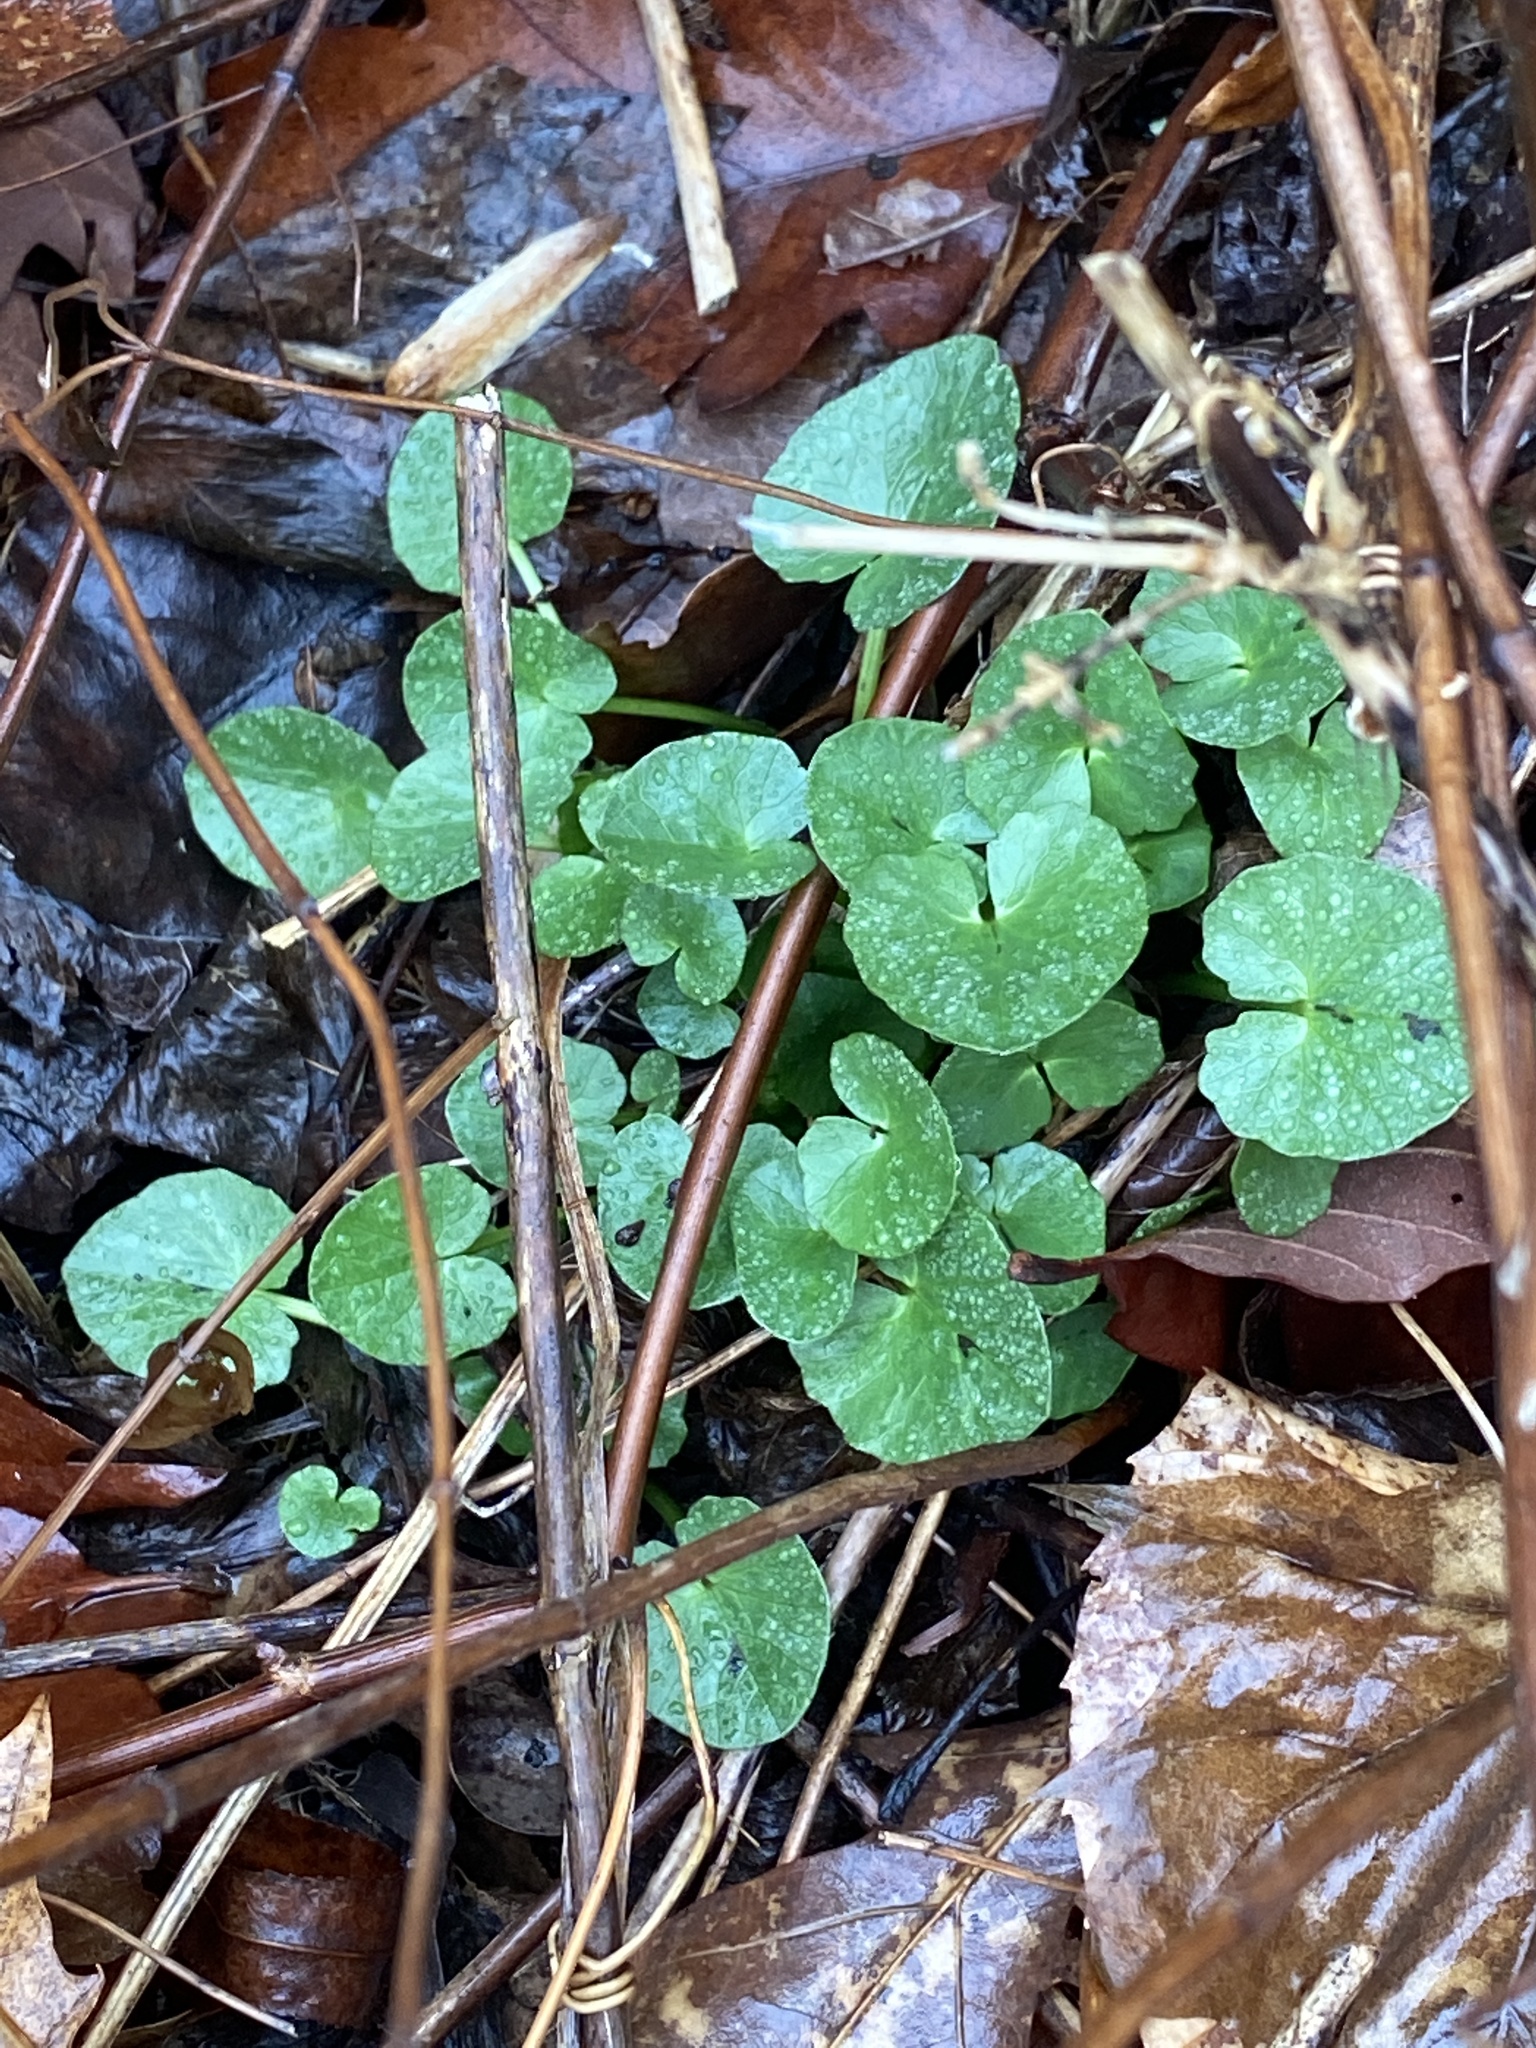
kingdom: Plantae
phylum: Tracheophyta
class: Magnoliopsida
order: Ranunculales
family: Ranunculaceae
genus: Ficaria
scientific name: Ficaria verna
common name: Lesser celandine
